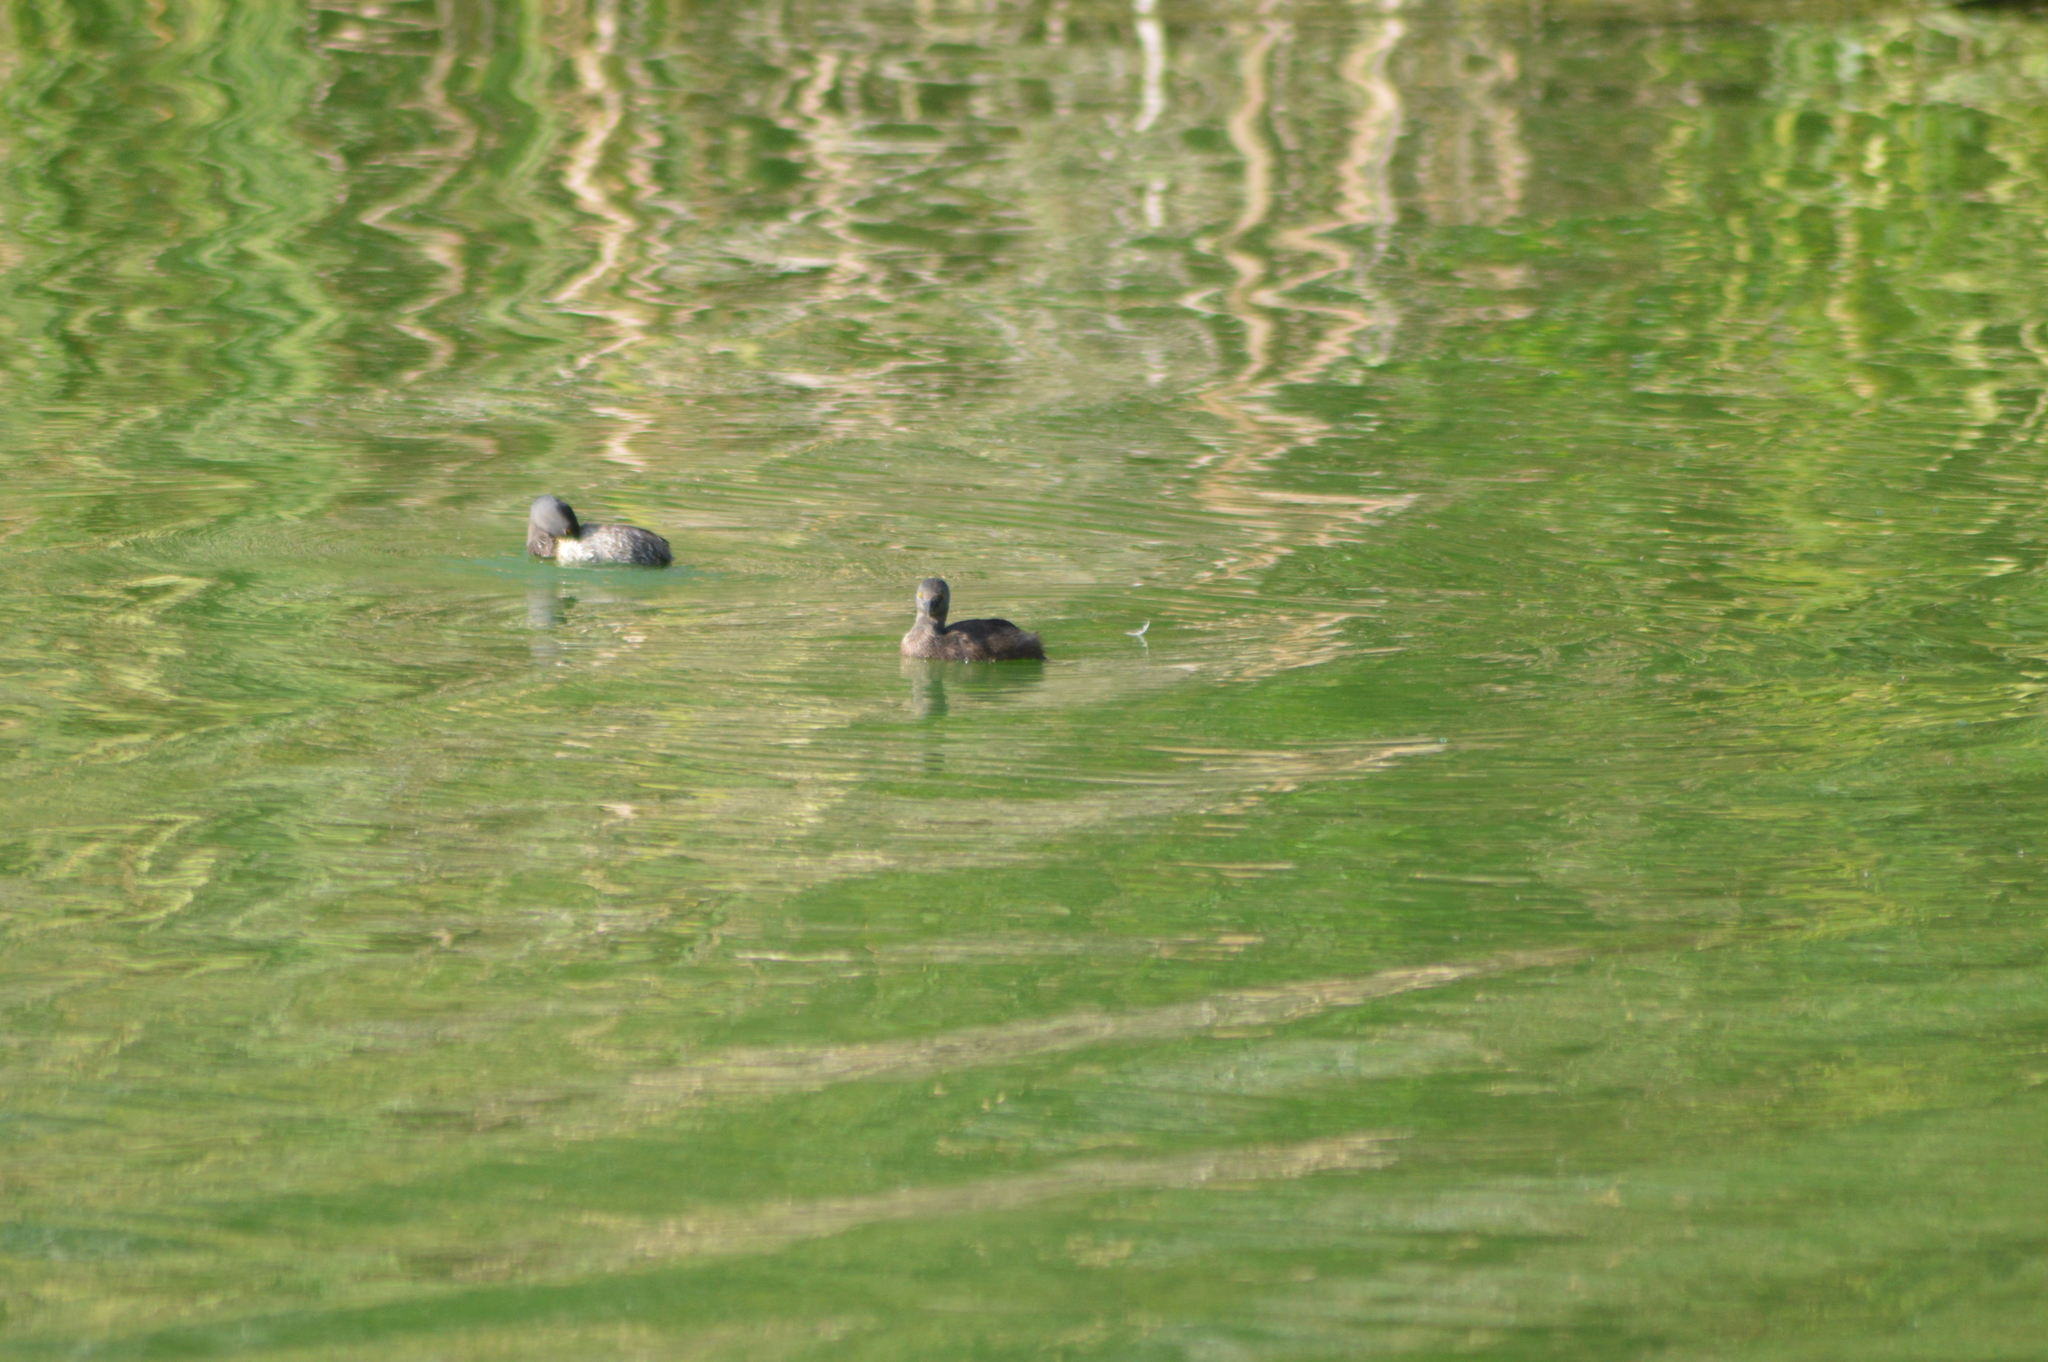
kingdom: Animalia
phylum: Chordata
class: Aves
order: Podicipediformes
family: Podicipedidae
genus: Tachybaptus
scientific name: Tachybaptus dominicus
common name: Least grebe
